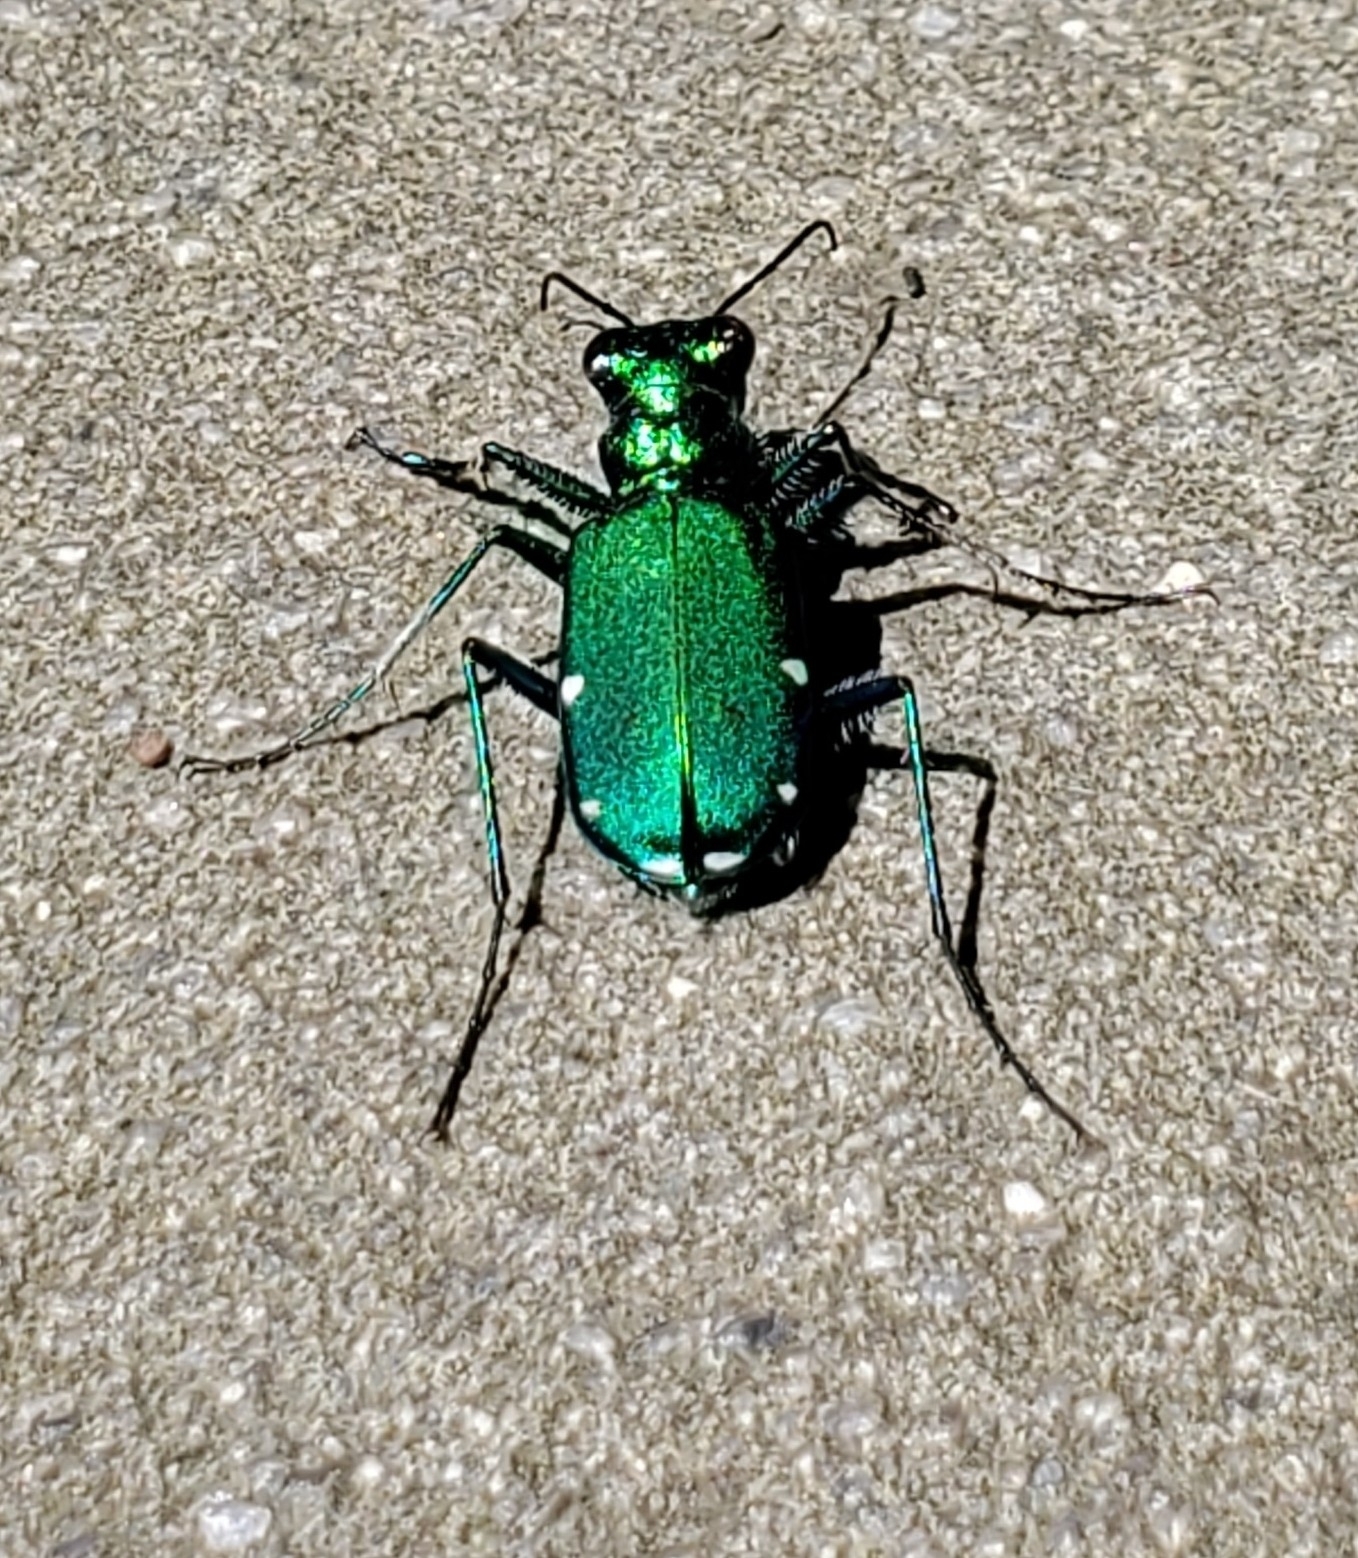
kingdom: Animalia
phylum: Arthropoda
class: Insecta
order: Coleoptera
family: Carabidae
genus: Cicindela
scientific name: Cicindela sexguttata
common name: Six-spotted tiger beetle
